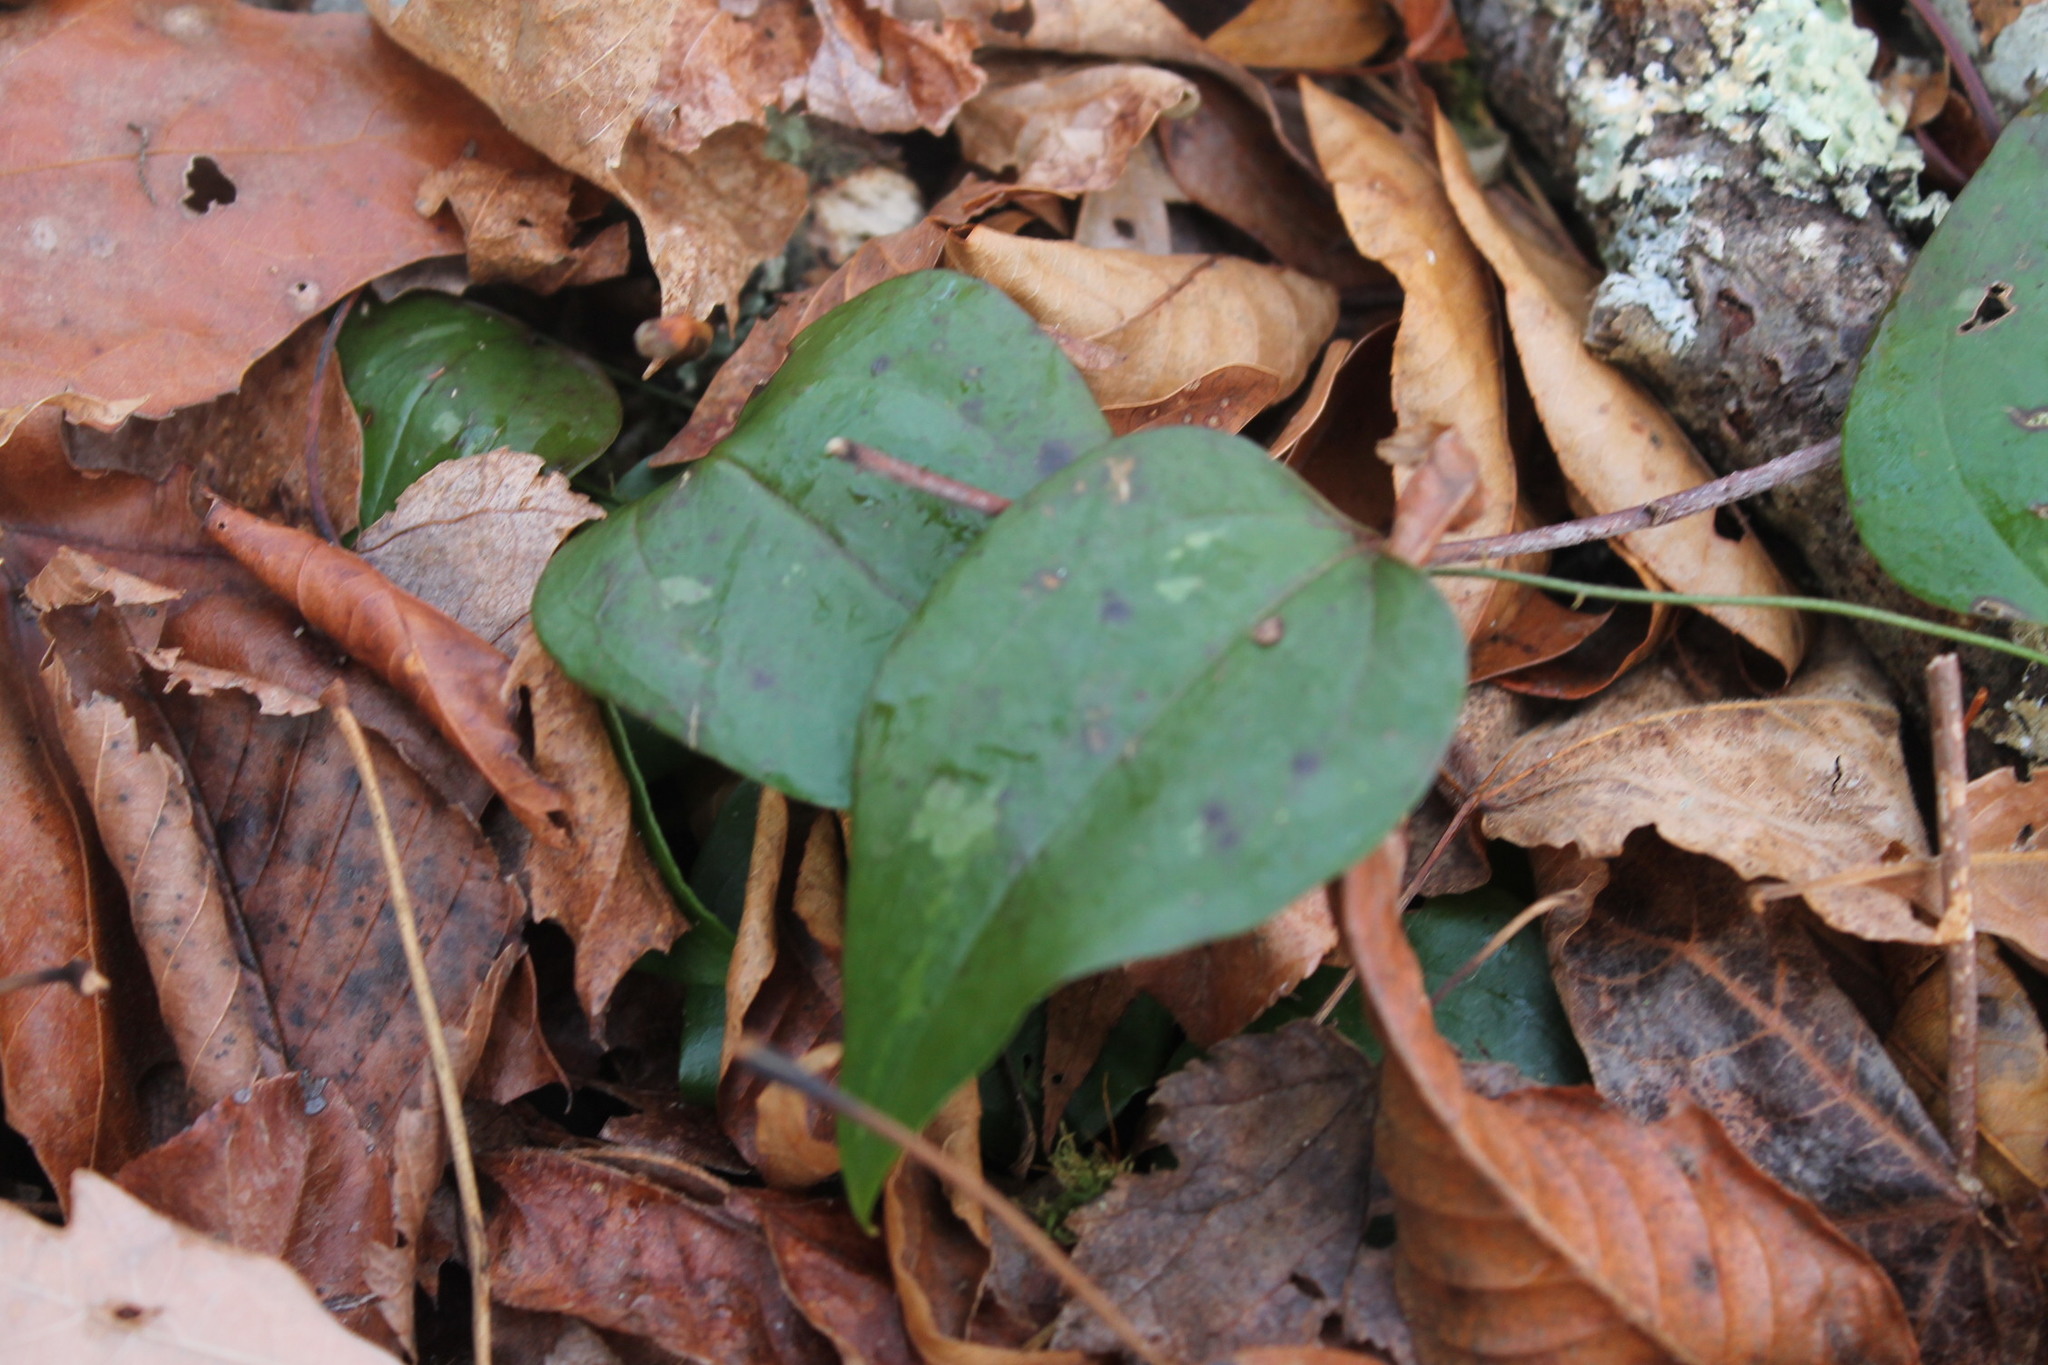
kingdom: Plantae
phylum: Tracheophyta
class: Liliopsida
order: Liliales
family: Smilacaceae
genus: Smilax
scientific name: Smilax glauca
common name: Cat greenbrier
